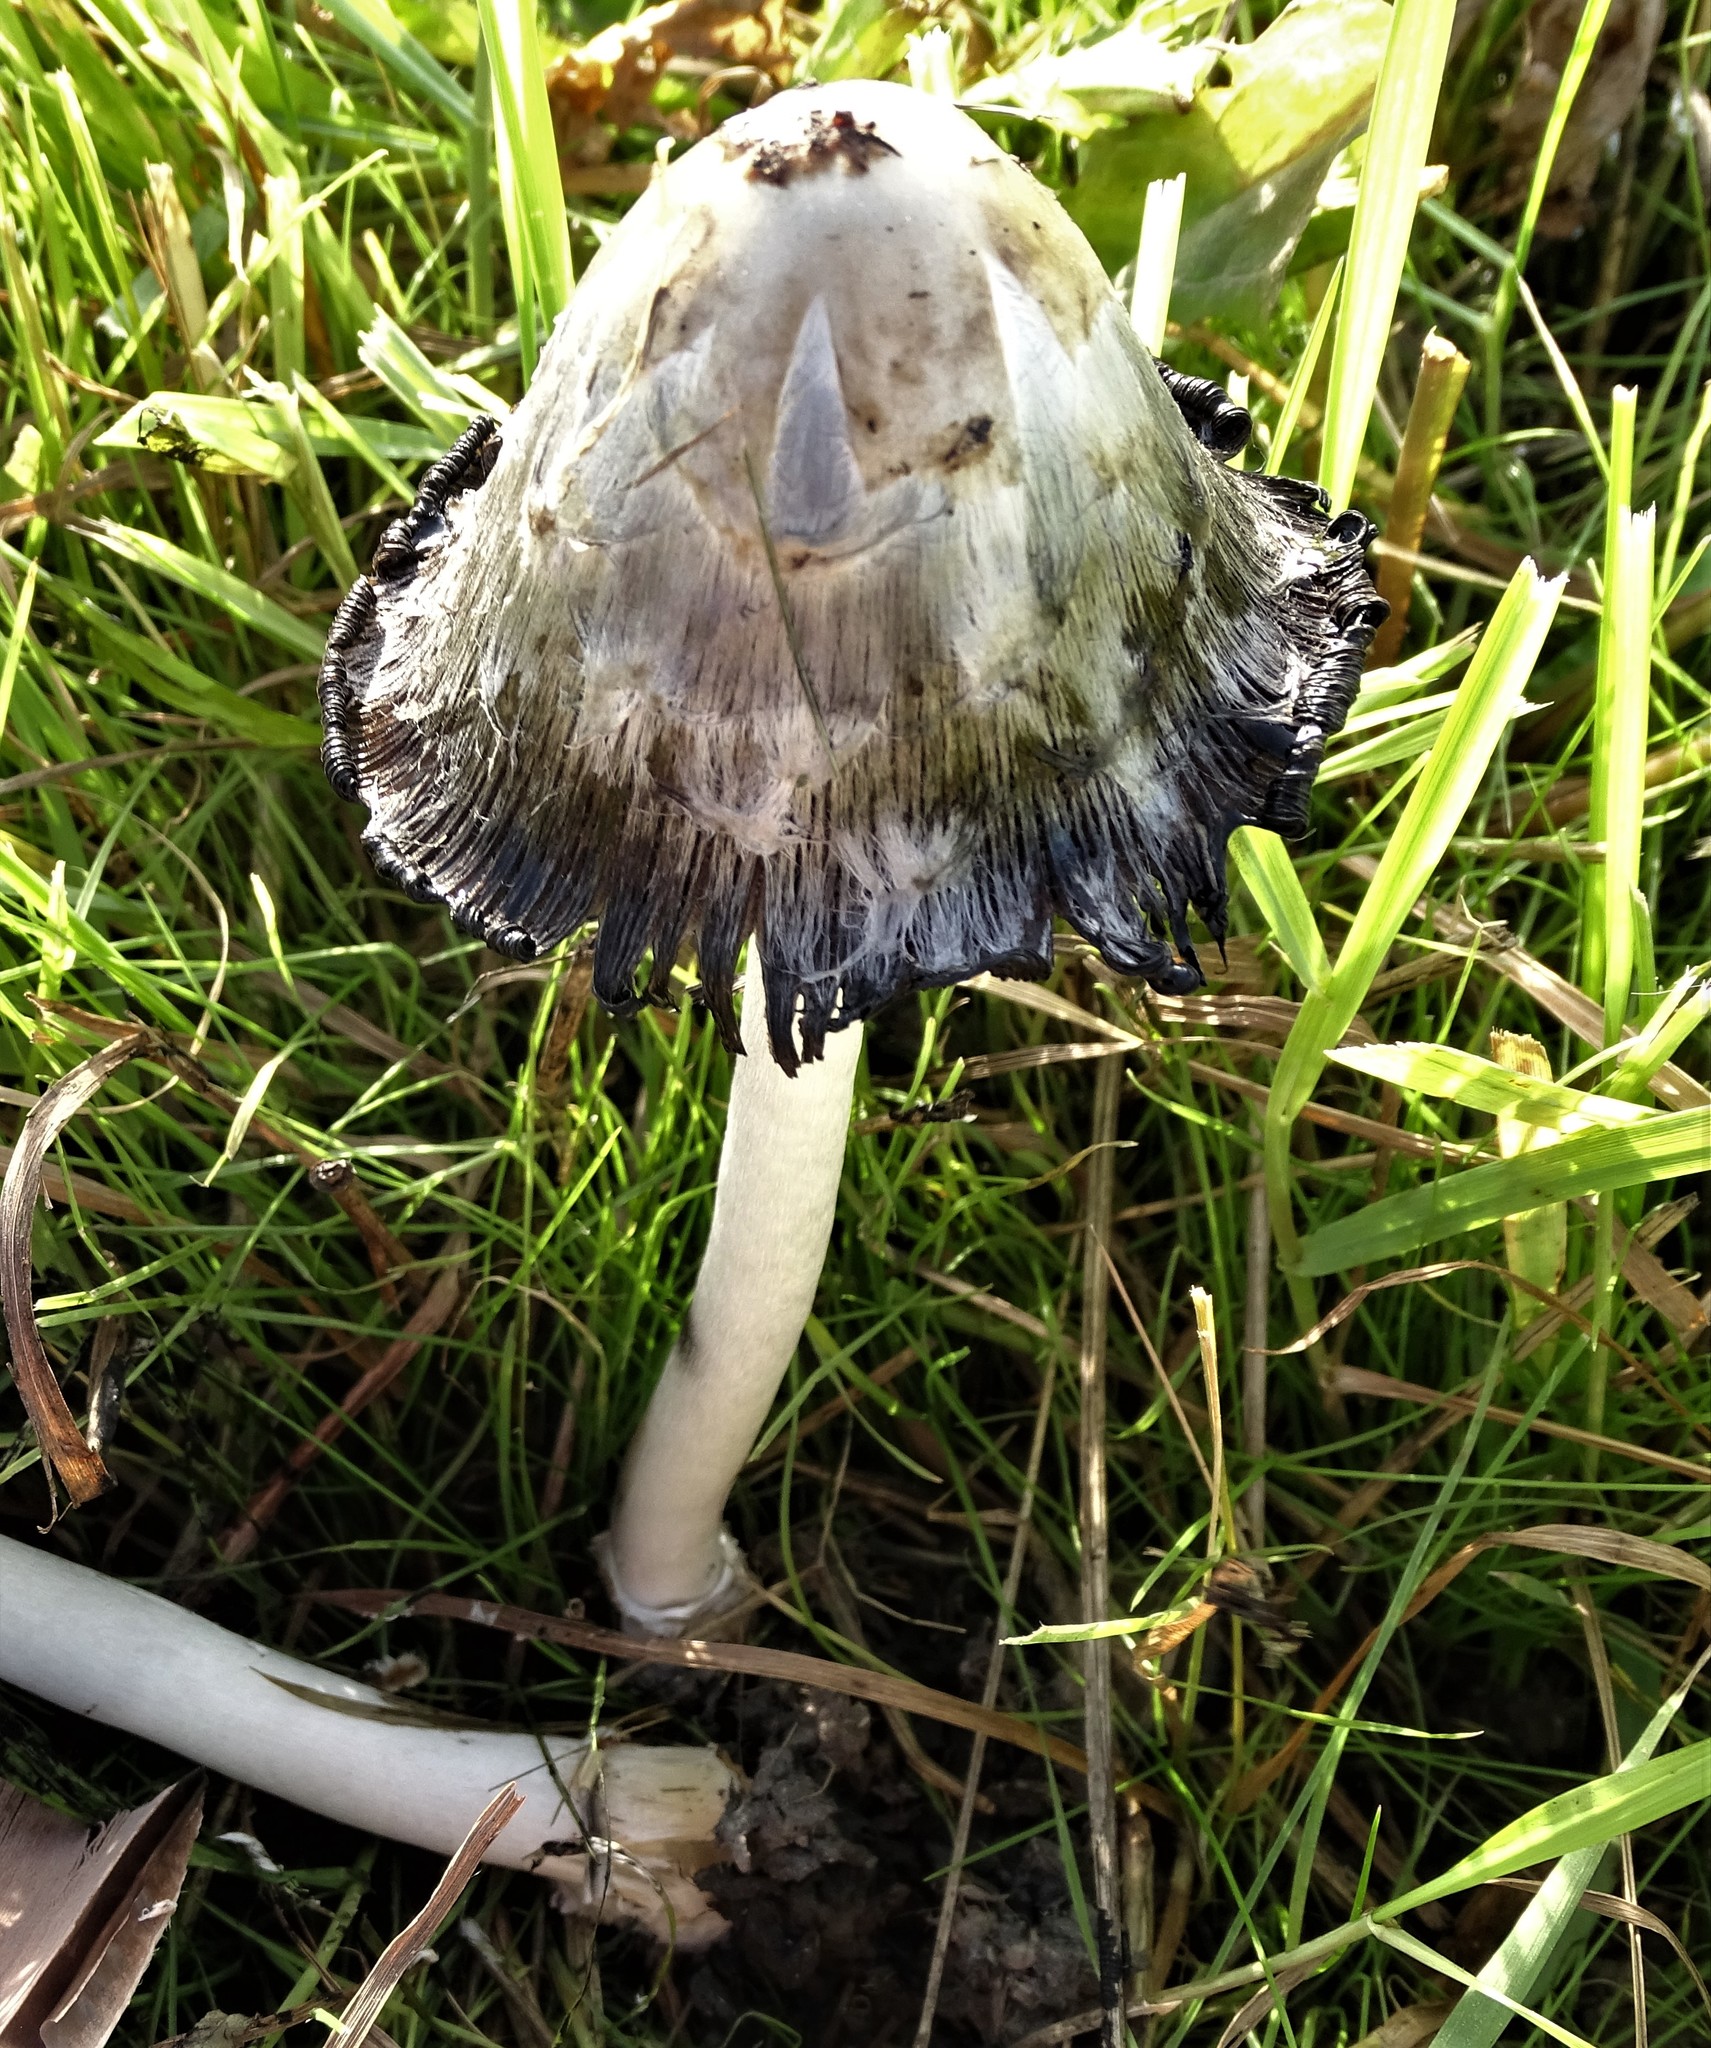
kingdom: Fungi
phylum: Basidiomycota
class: Agaricomycetes
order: Agaricales
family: Agaricaceae
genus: Coprinus
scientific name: Coprinus comatus
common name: Lawyer's wig
